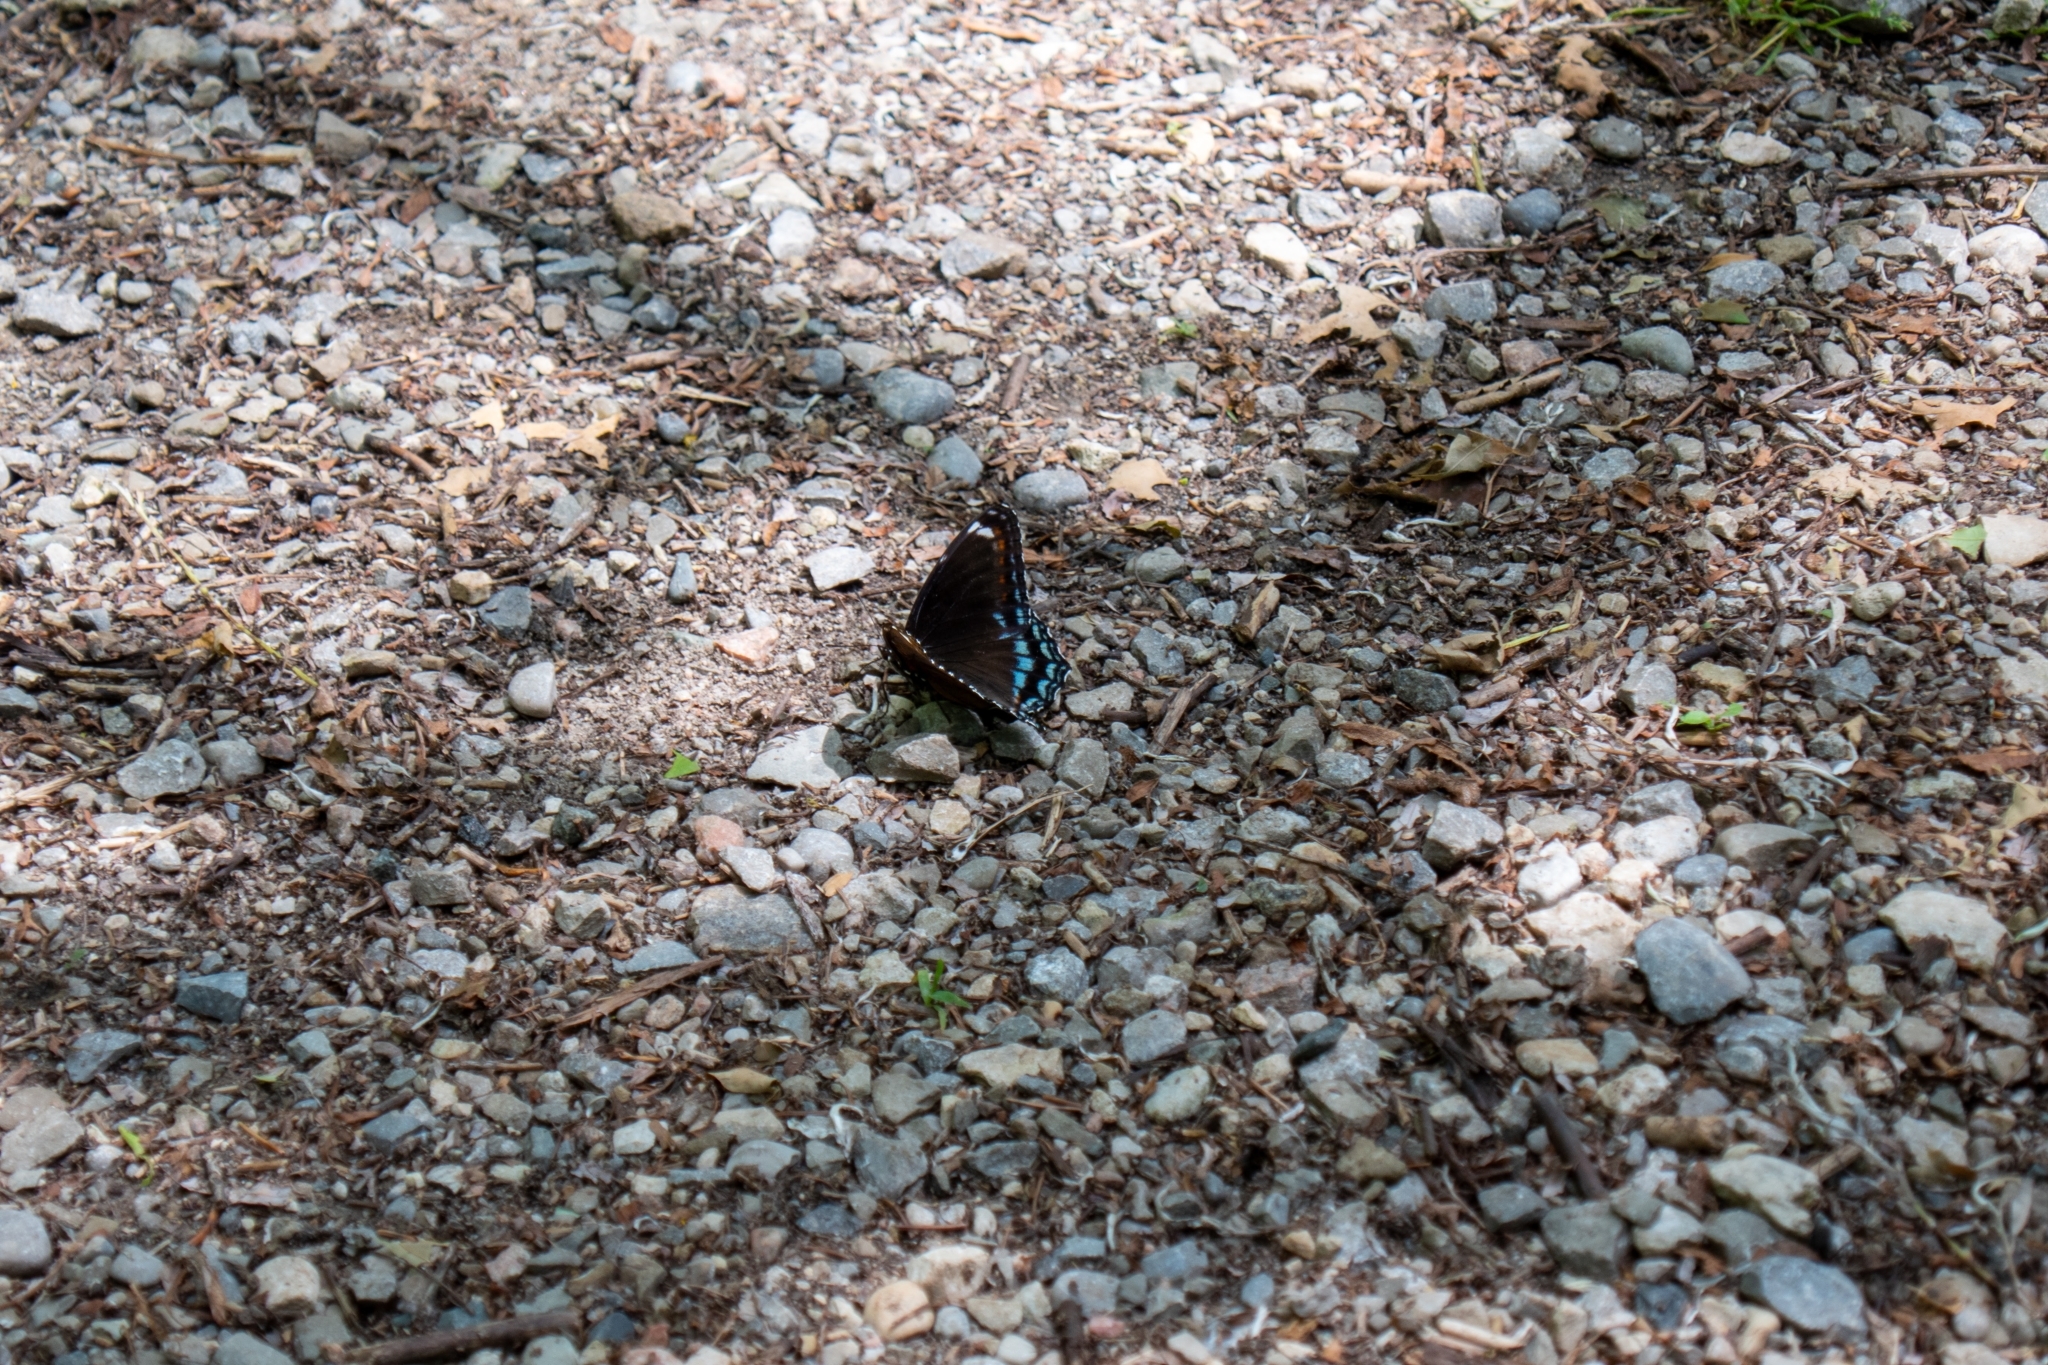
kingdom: Animalia
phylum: Arthropoda
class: Insecta
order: Lepidoptera
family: Nymphalidae
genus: Limenitis
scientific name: Limenitis astyanax
